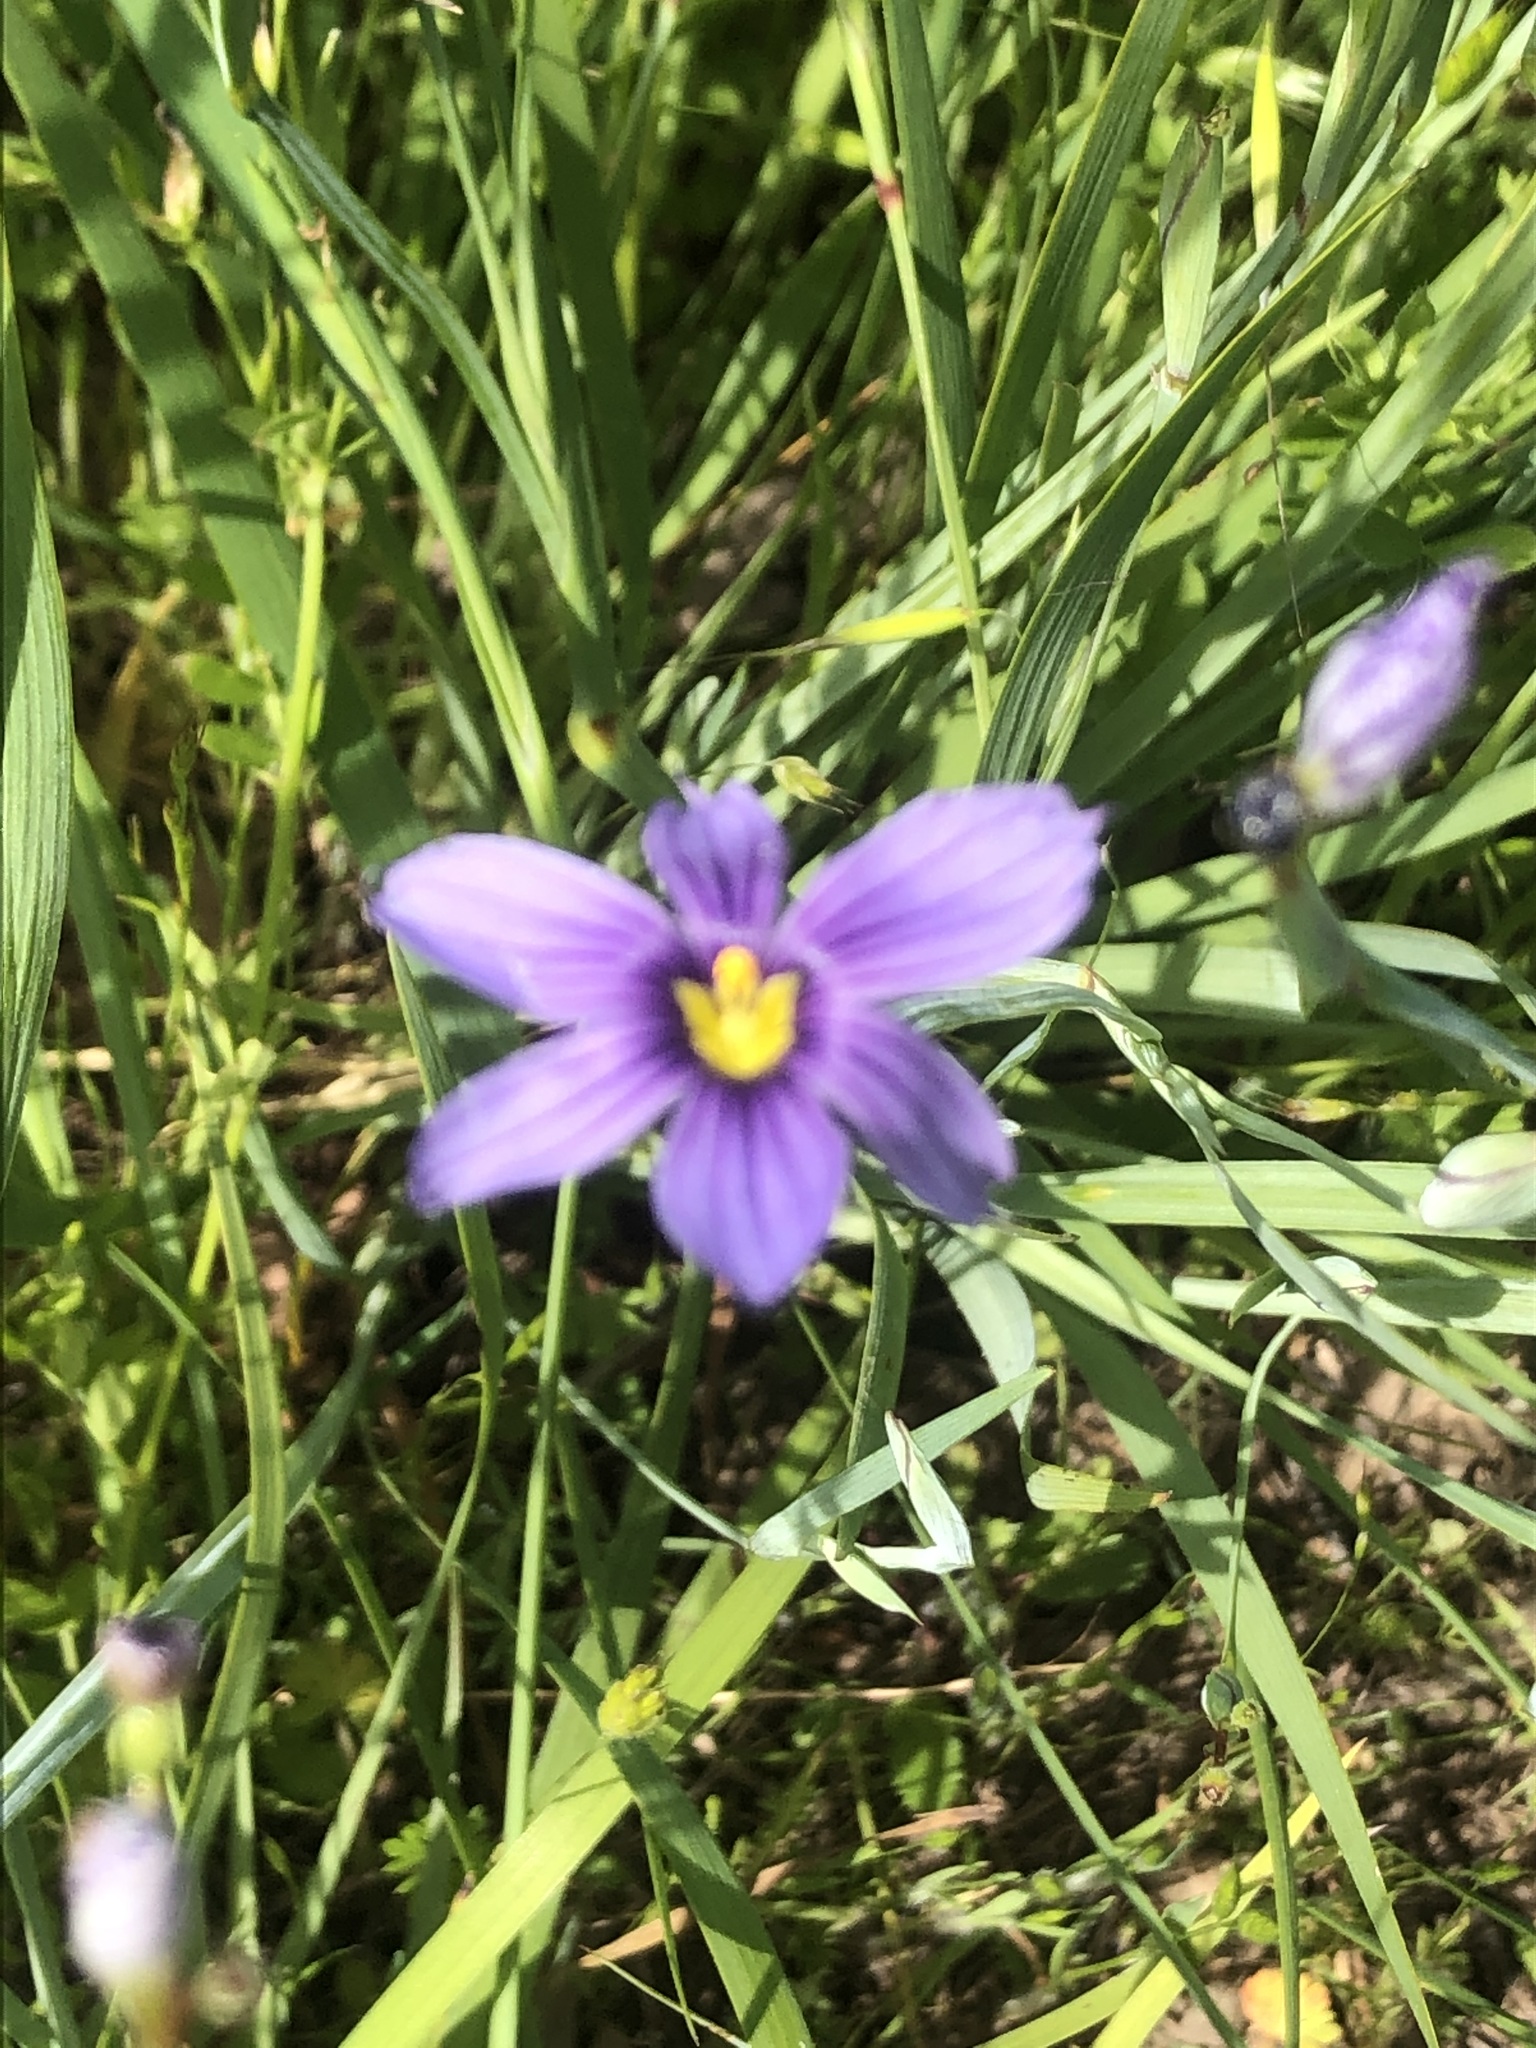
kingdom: Plantae
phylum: Tracheophyta
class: Liliopsida
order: Asparagales
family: Iridaceae
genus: Sisyrinchium
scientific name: Sisyrinchium bellum
